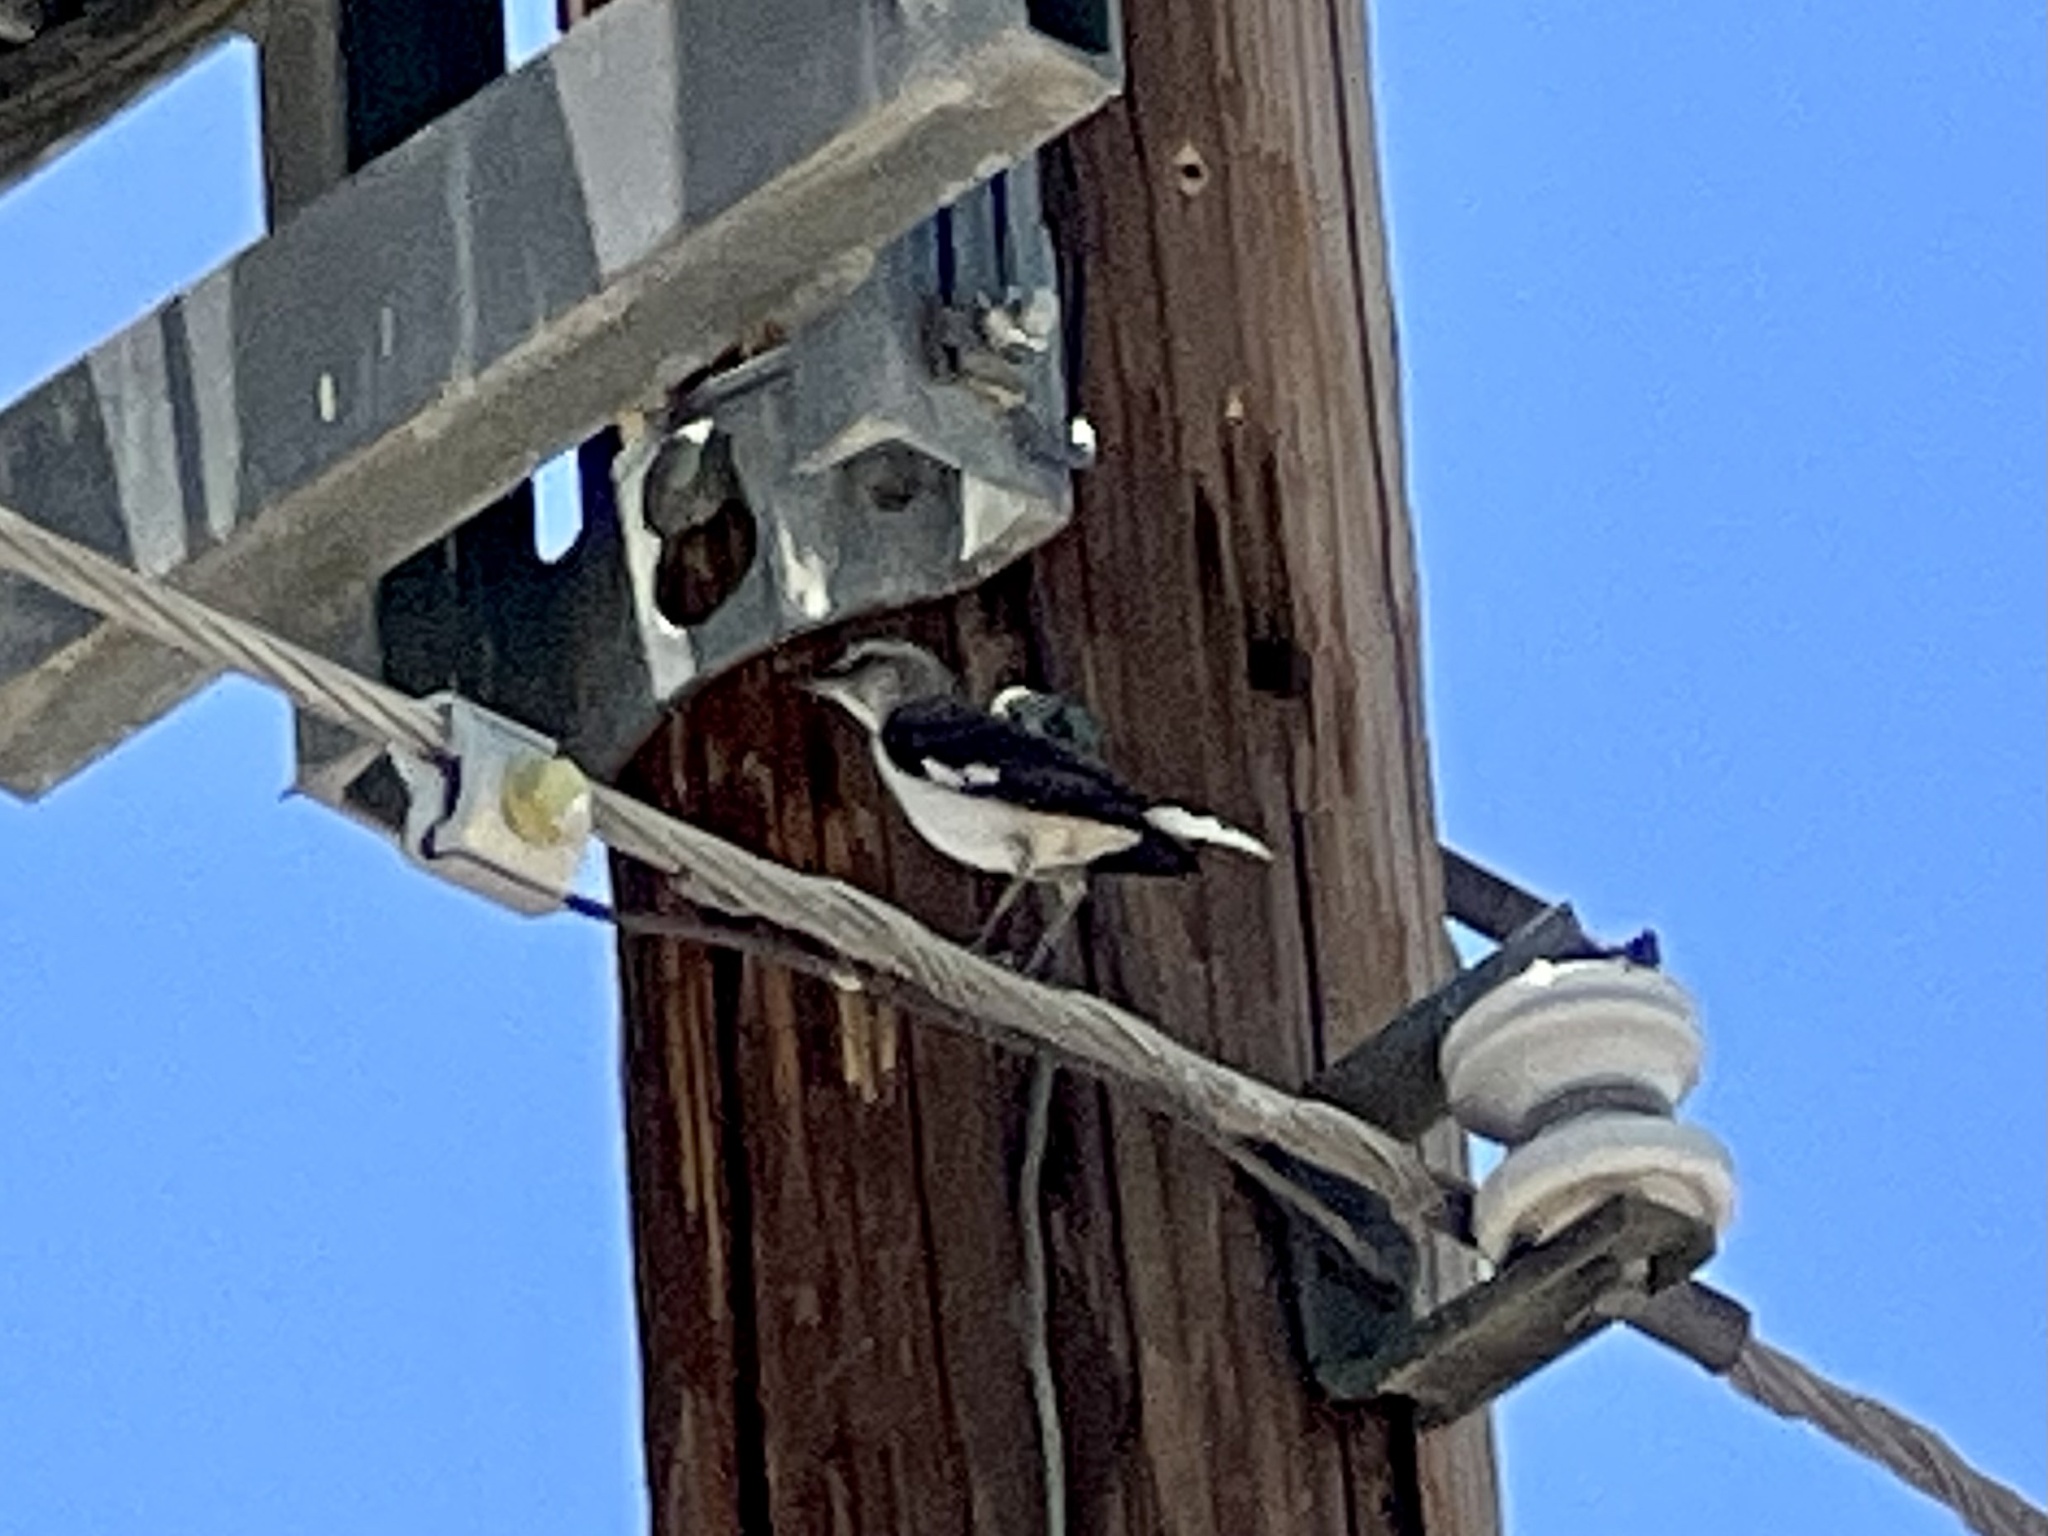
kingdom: Animalia
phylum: Chordata
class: Aves
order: Passeriformes
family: Mimidae
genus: Mimus
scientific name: Mimus polyglottos
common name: Northern mockingbird
